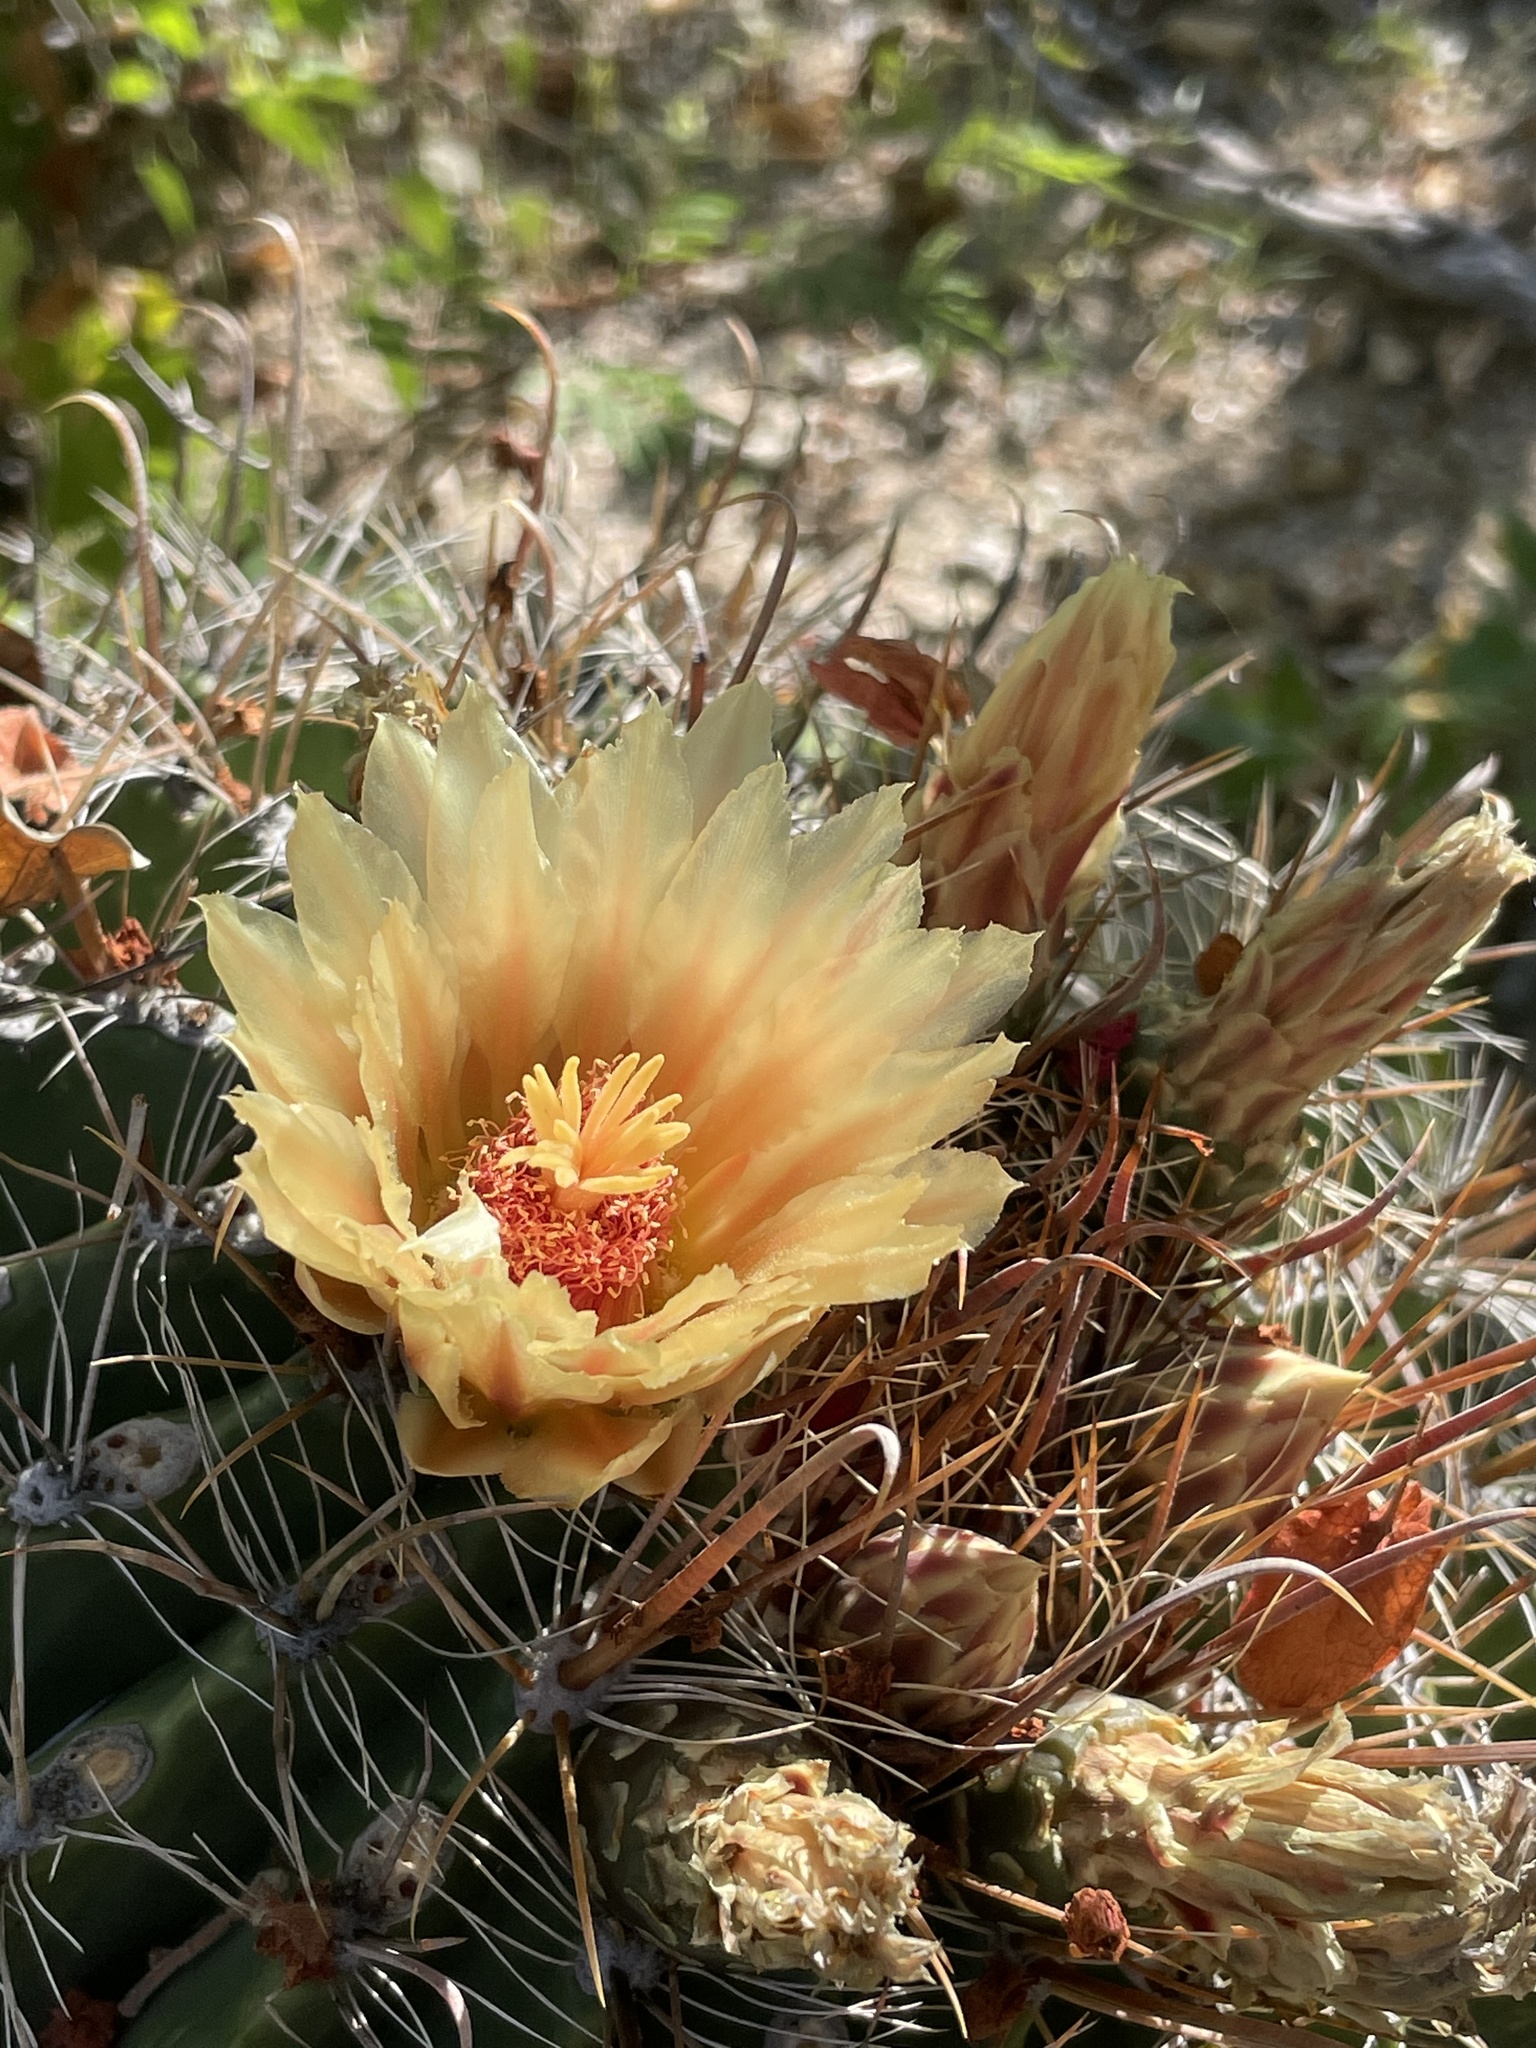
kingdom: Plantae
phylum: Tracheophyta
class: Magnoliopsida
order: Caryophyllales
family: Cactaceae
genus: Ferocactus
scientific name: Ferocactus townsendianus
